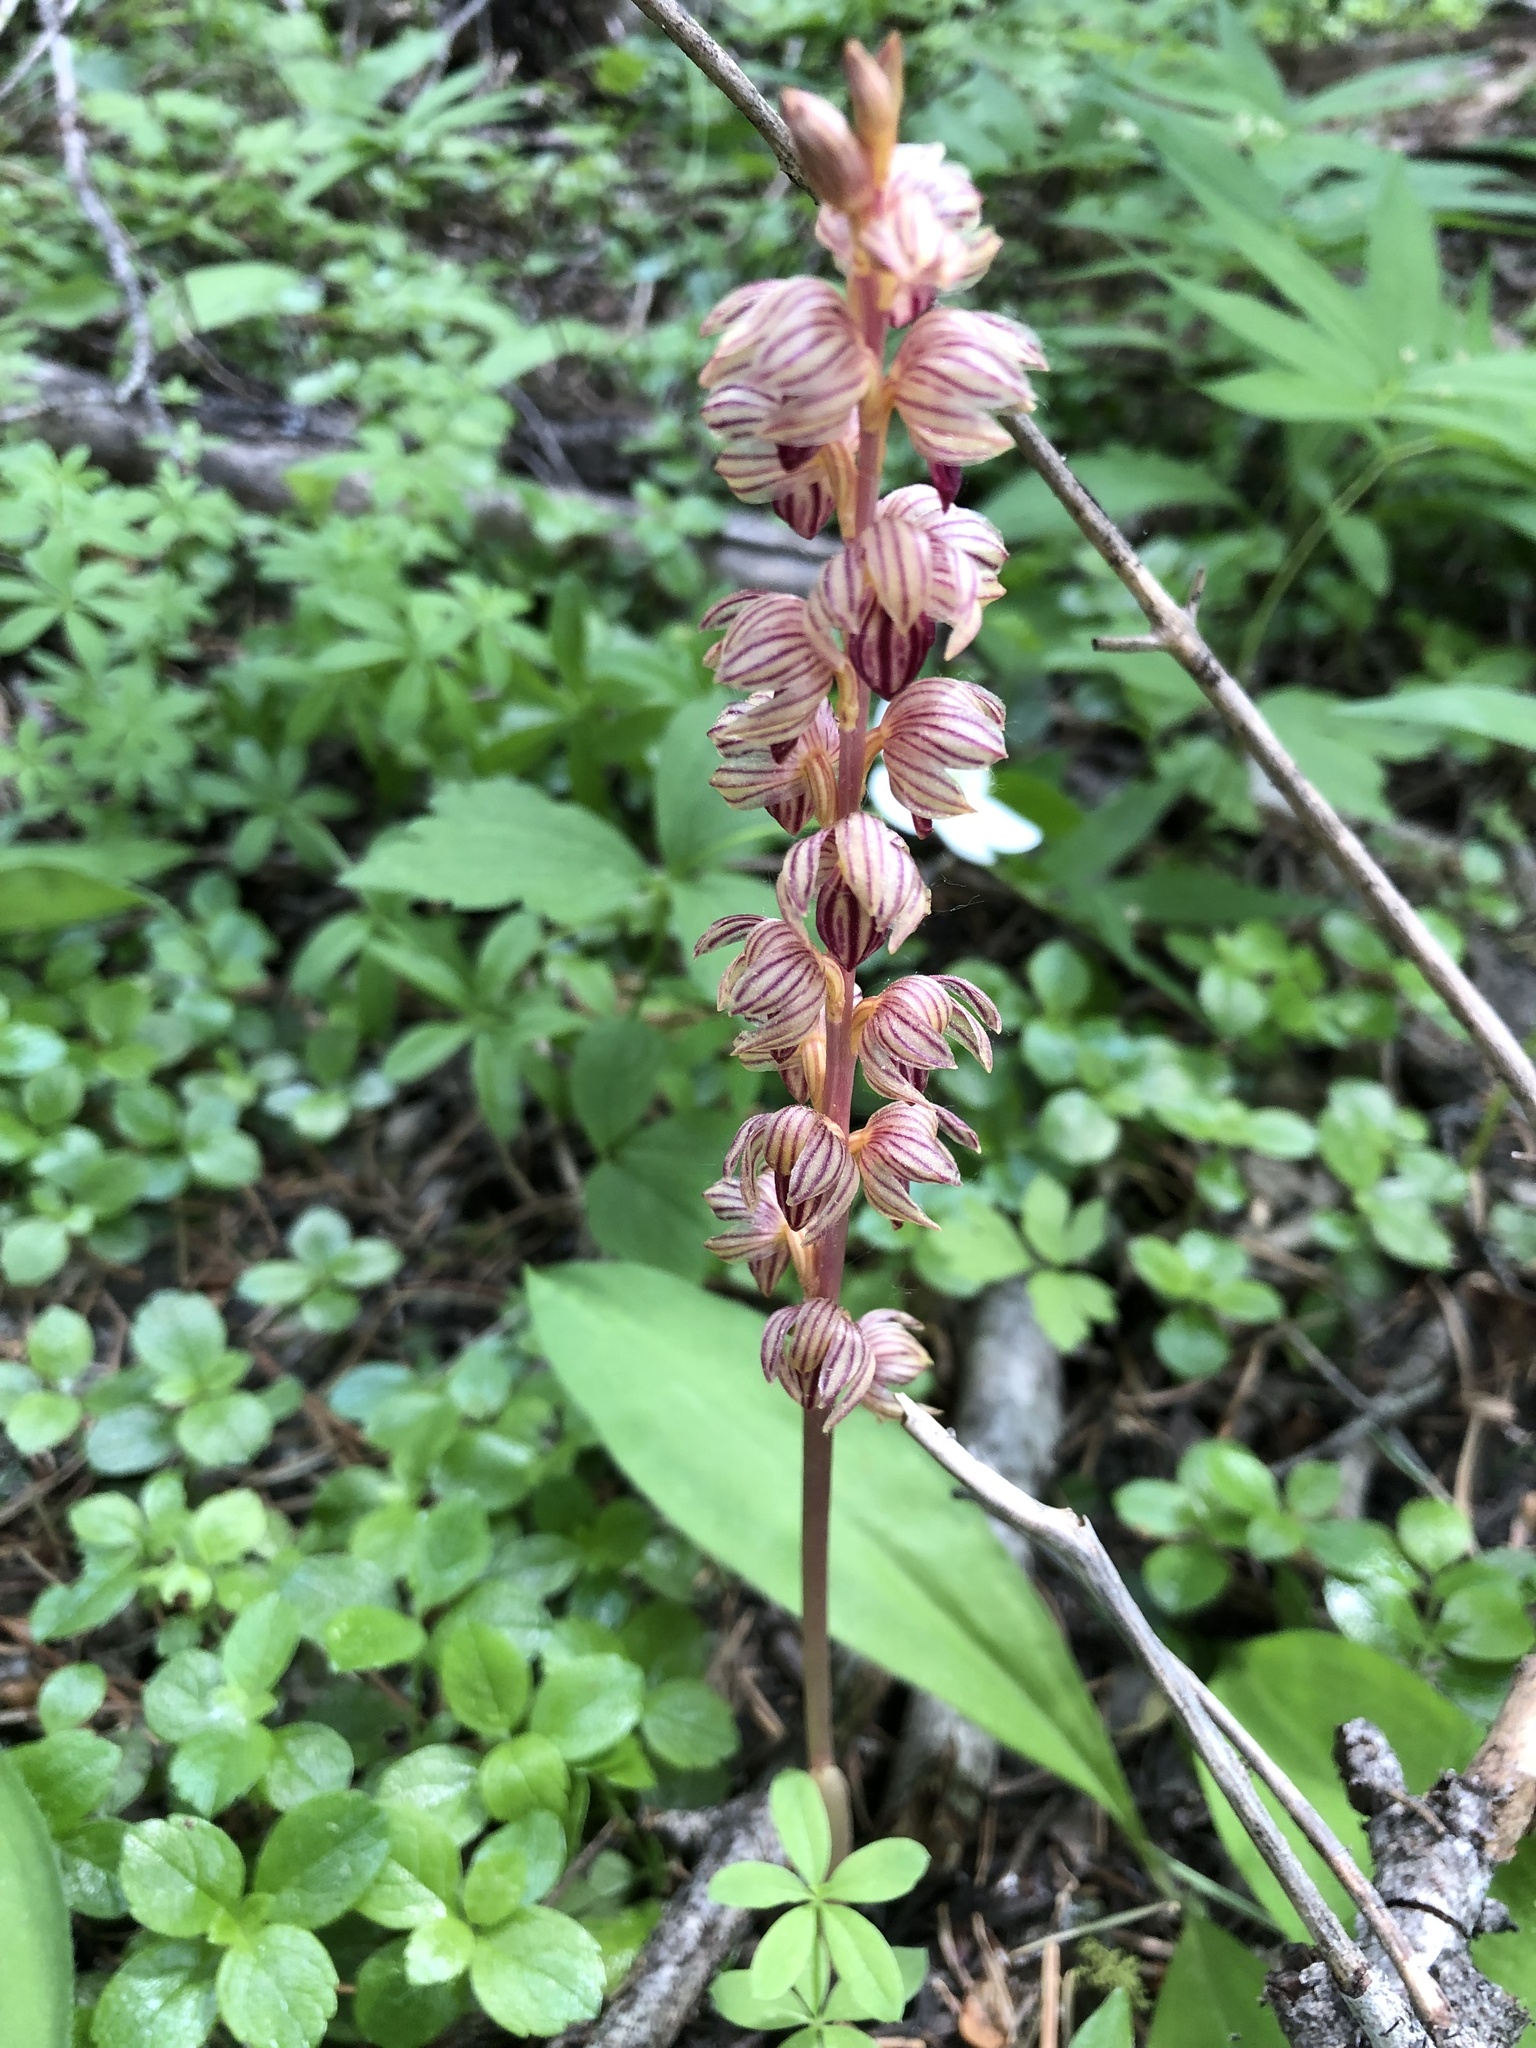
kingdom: Plantae
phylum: Tracheophyta
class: Liliopsida
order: Asparagales
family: Orchidaceae
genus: Corallorhiza
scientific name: Corallorhiza striata
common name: Hooded coralroot
